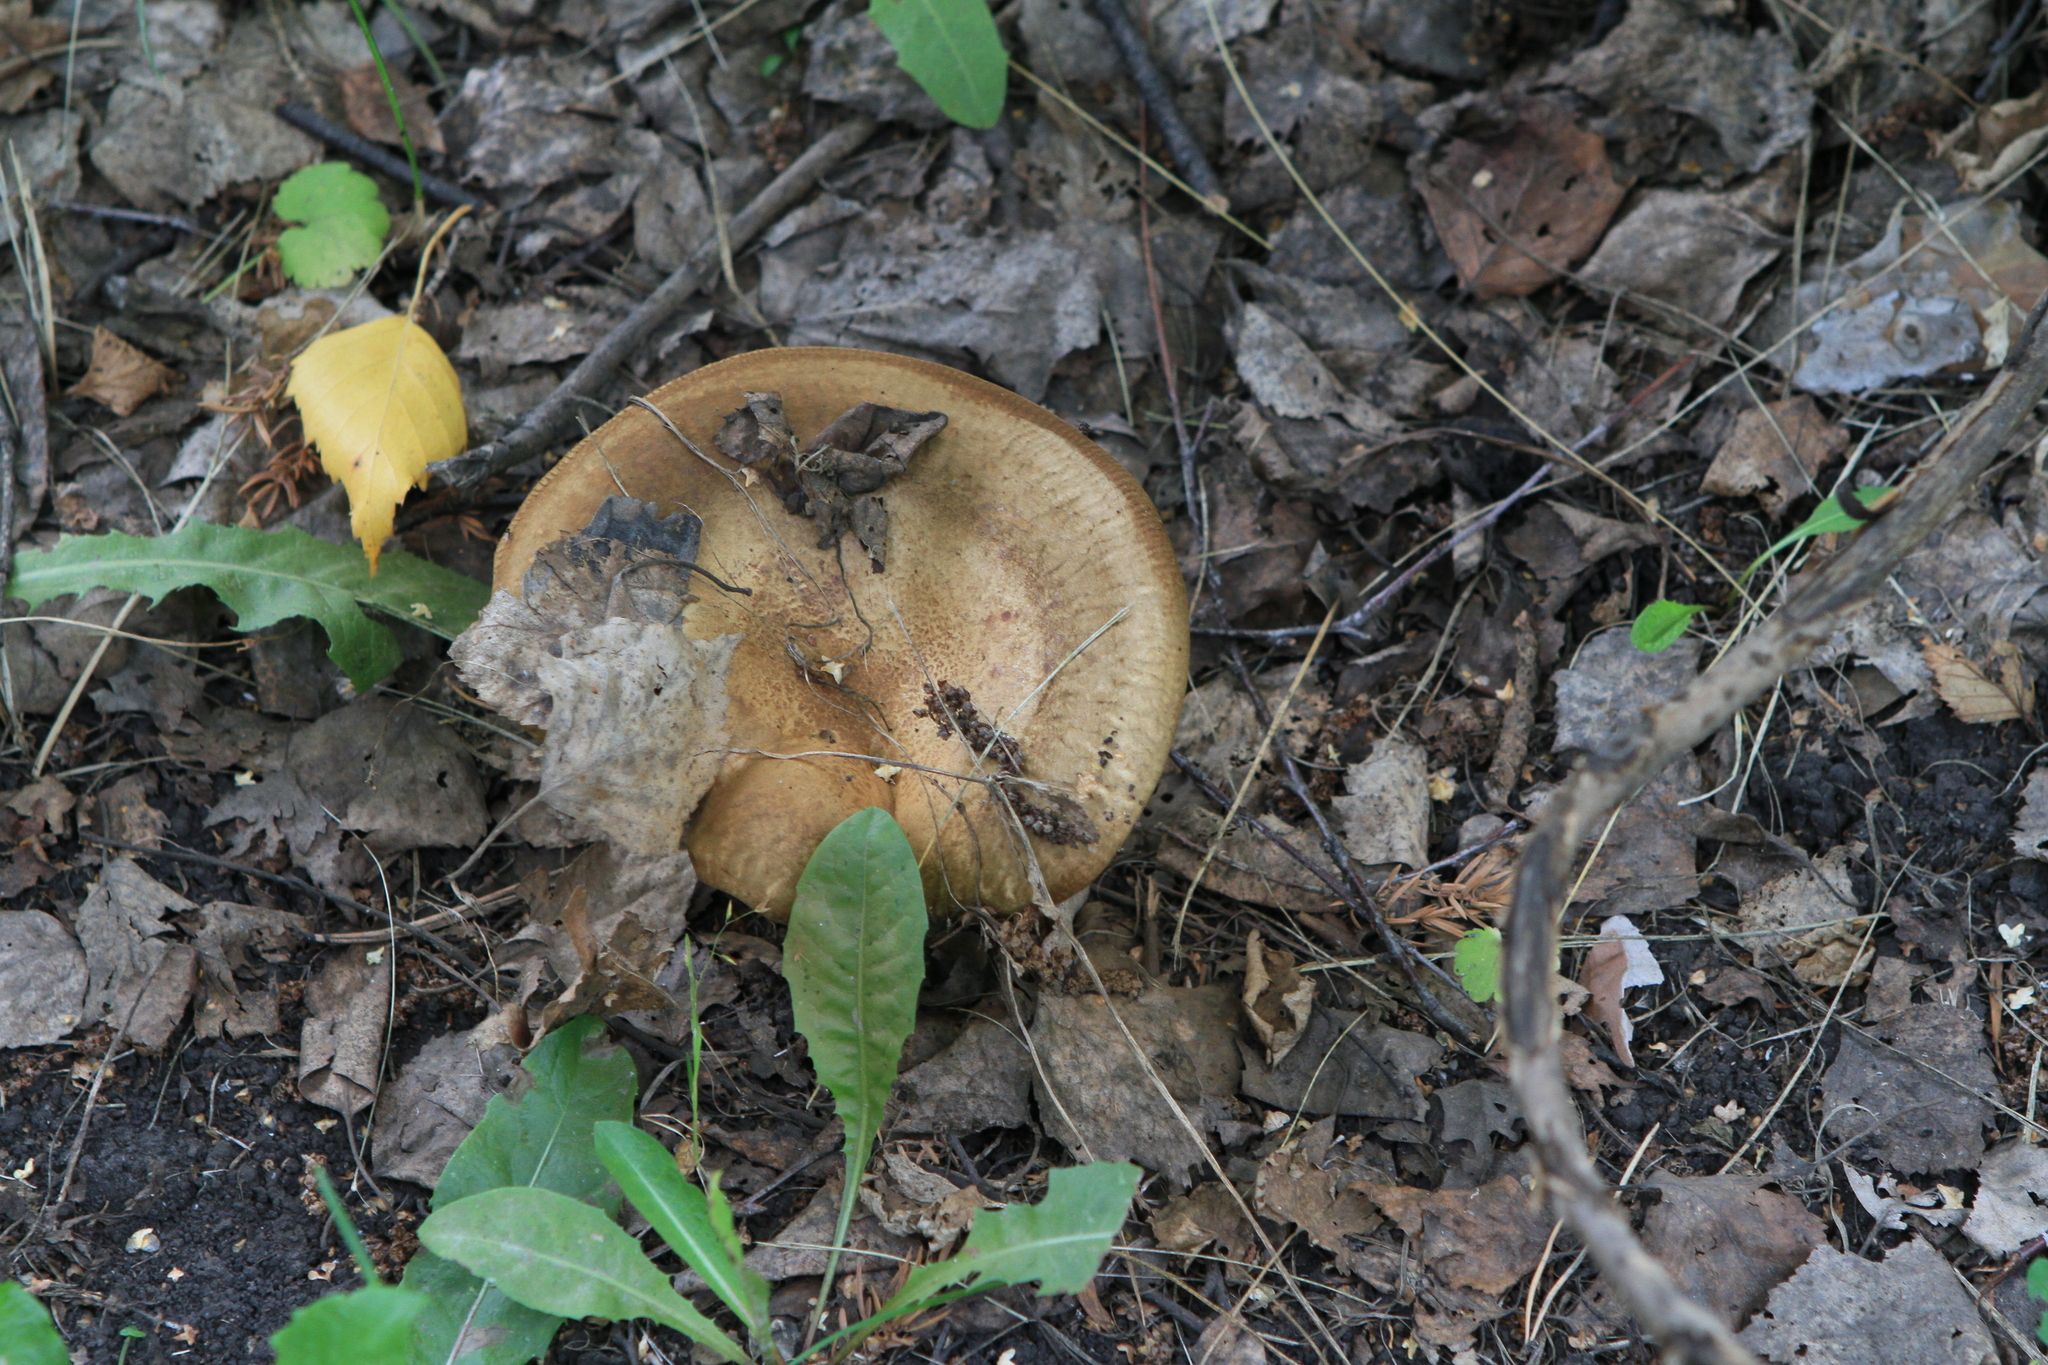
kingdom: Fungi
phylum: Basidiomycota
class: Agaricomycetes
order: Boletales
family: Paxillaceae
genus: Paxillus
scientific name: Paxillus involutus
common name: Brown roll rim
